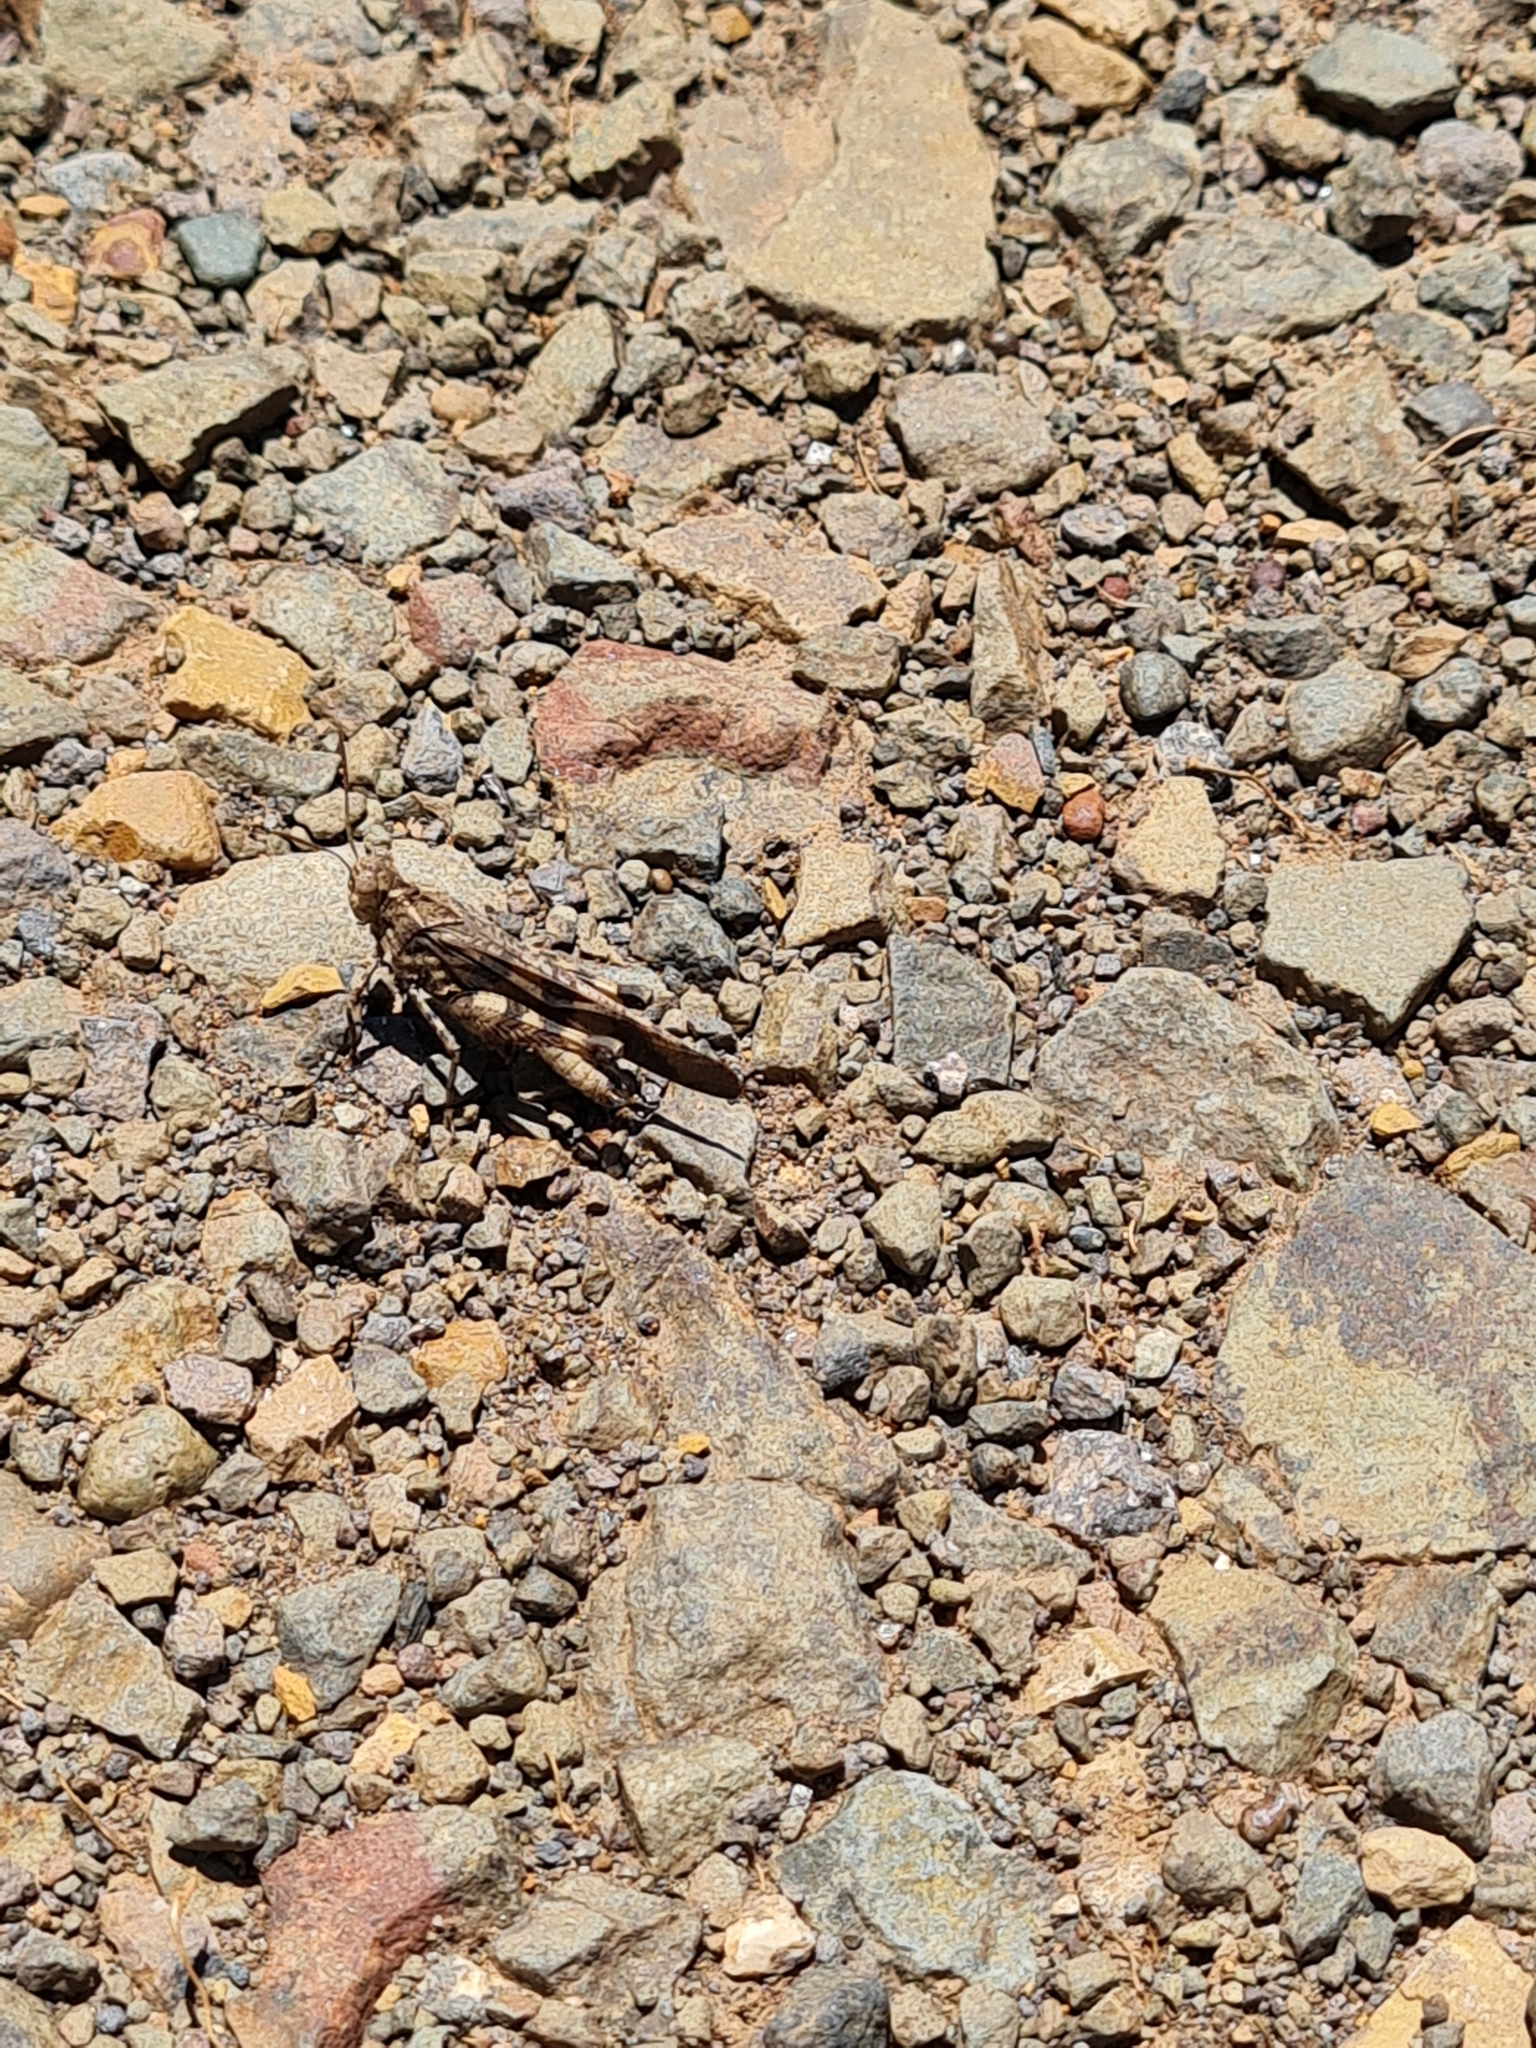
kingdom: Animalia
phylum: Arthropoda
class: Insecta
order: Orthoptera
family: Acrididae
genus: Lactista
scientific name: Lactista stramineus
